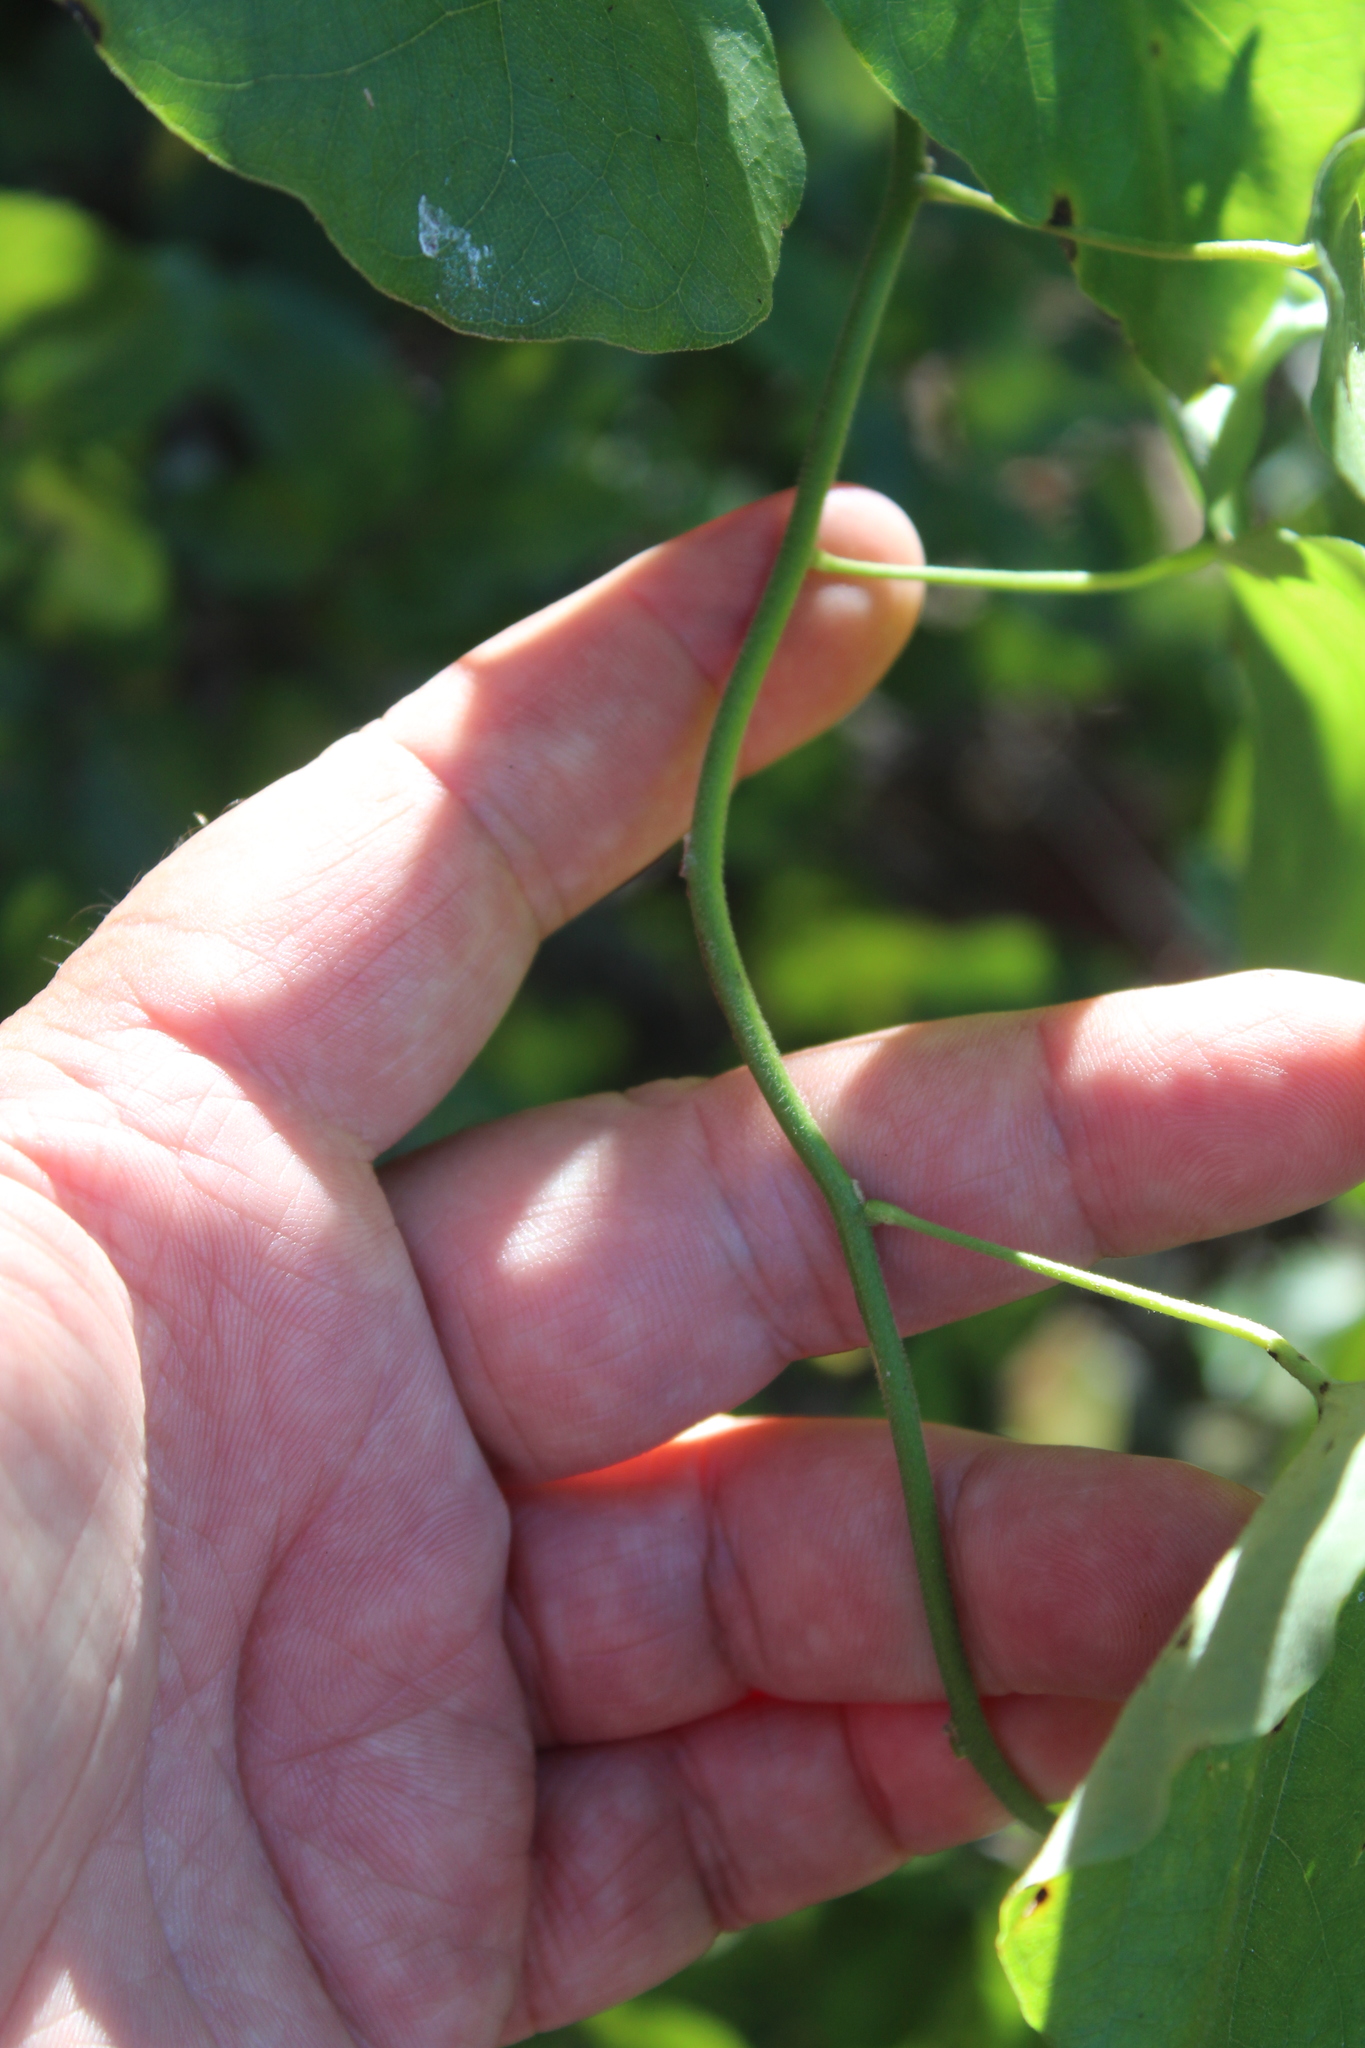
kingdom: Plantae
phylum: Tracheophyta
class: Magnoliopsida
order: Ranunculales
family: Menispermaceae
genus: Cocculus
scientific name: Cocculus carolinus
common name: Carolina moonseed
